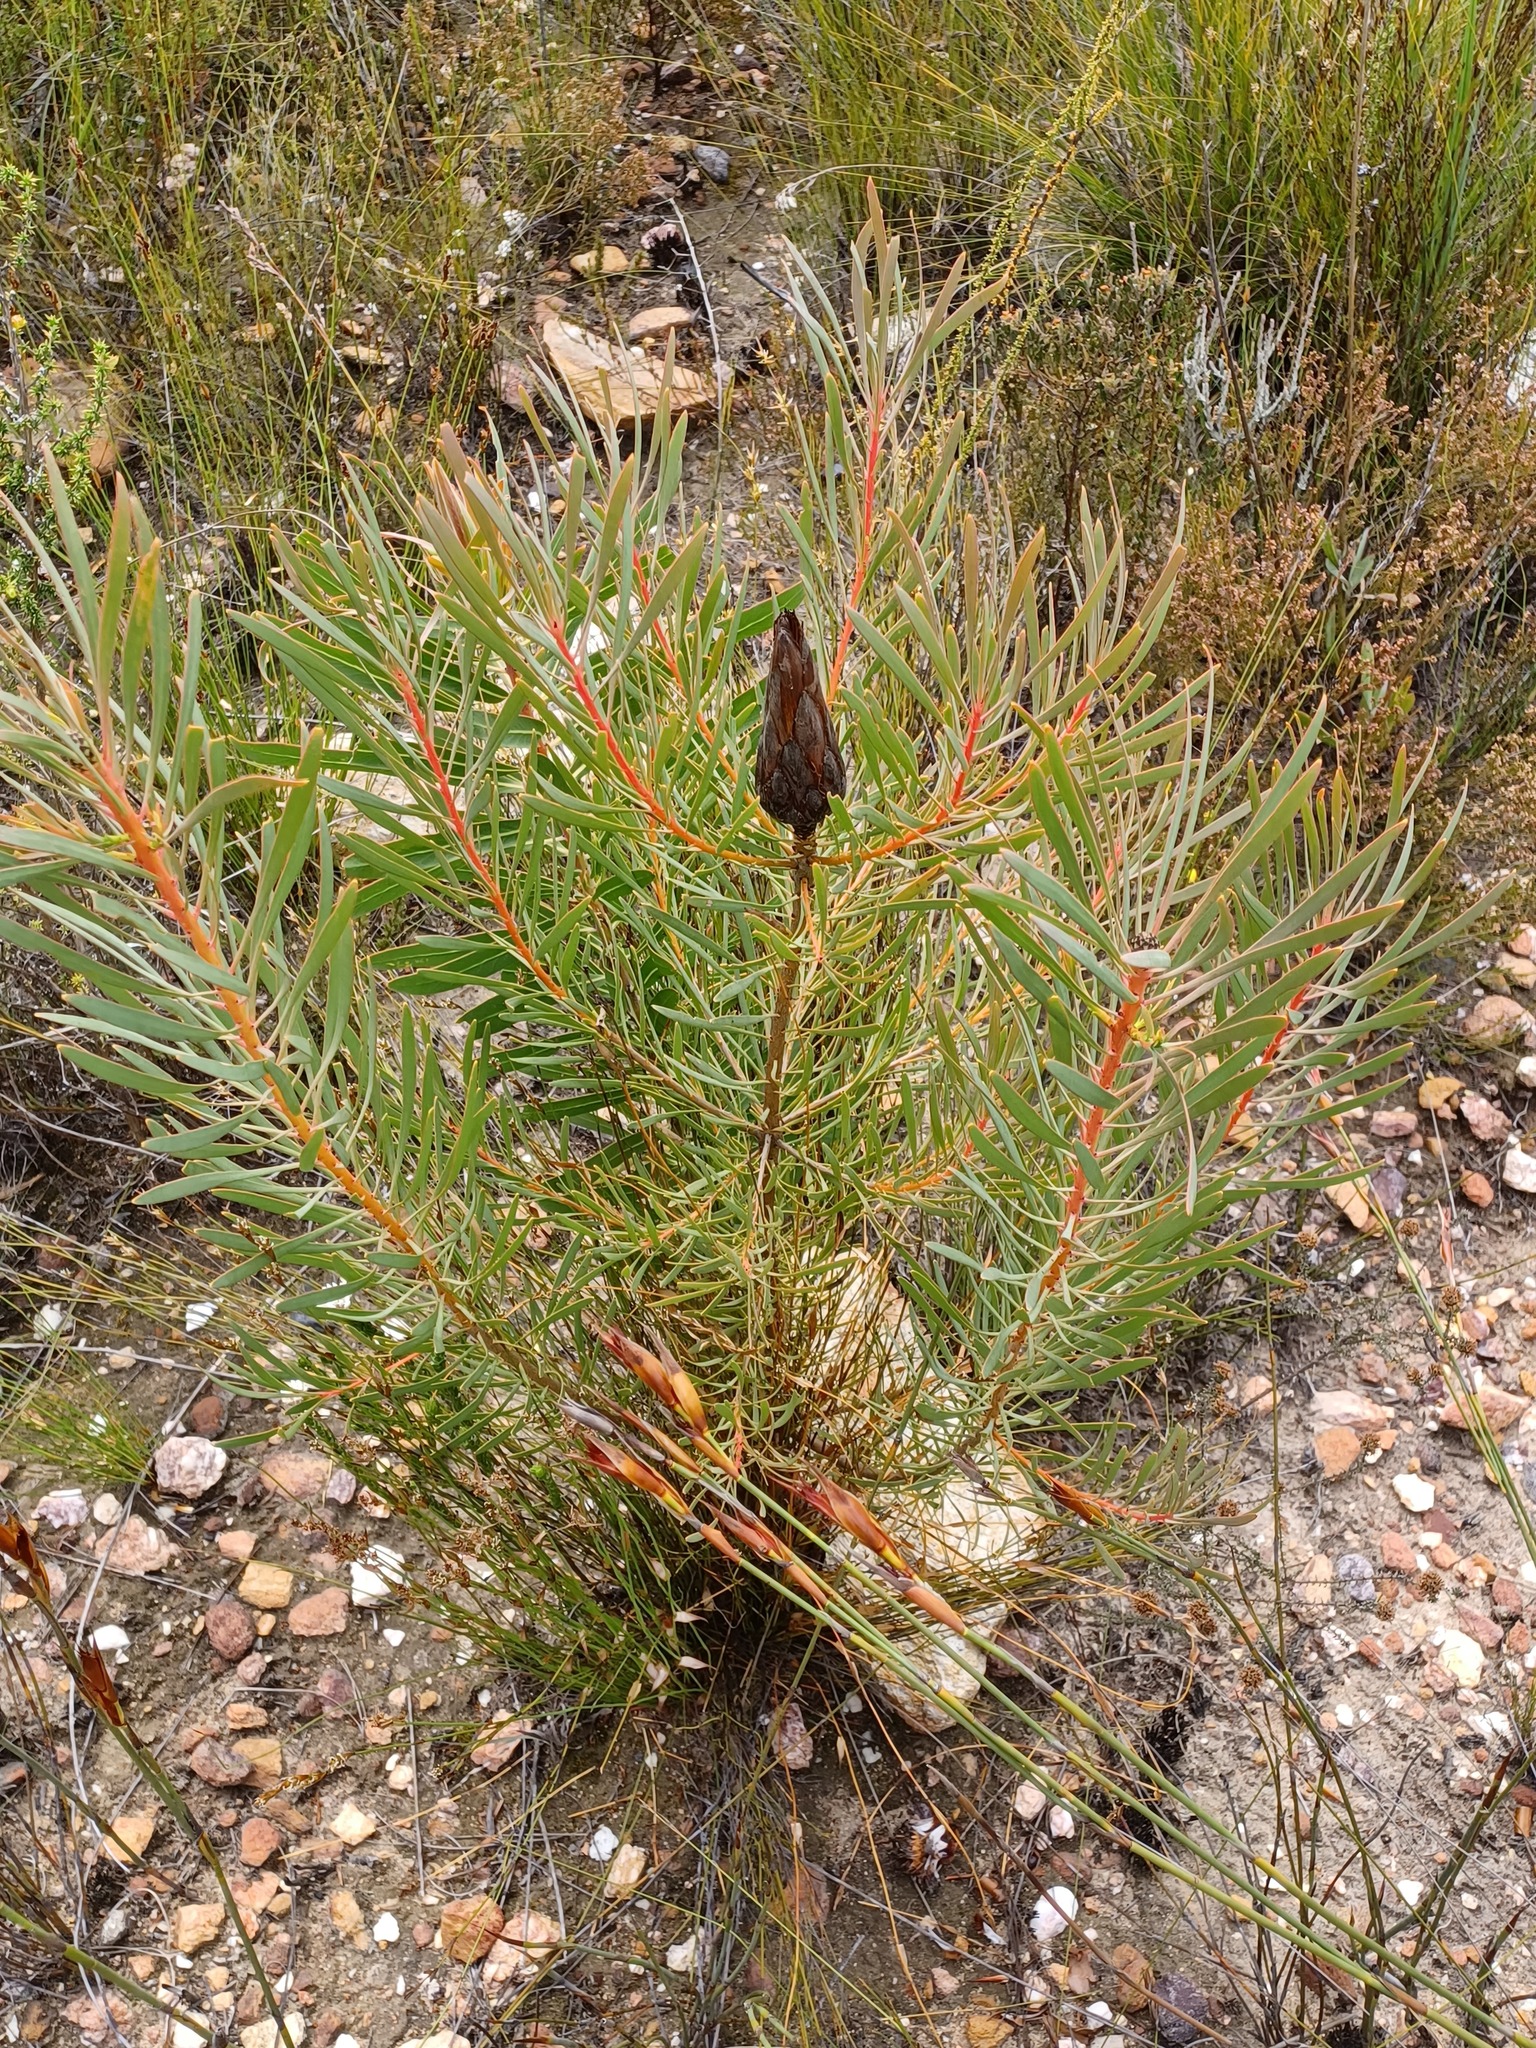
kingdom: Plantae
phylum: Tracheophyta
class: Magnoliopsida
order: Proteales
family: Proteaceae
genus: Protea
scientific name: Protea repens
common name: Sugarbush
